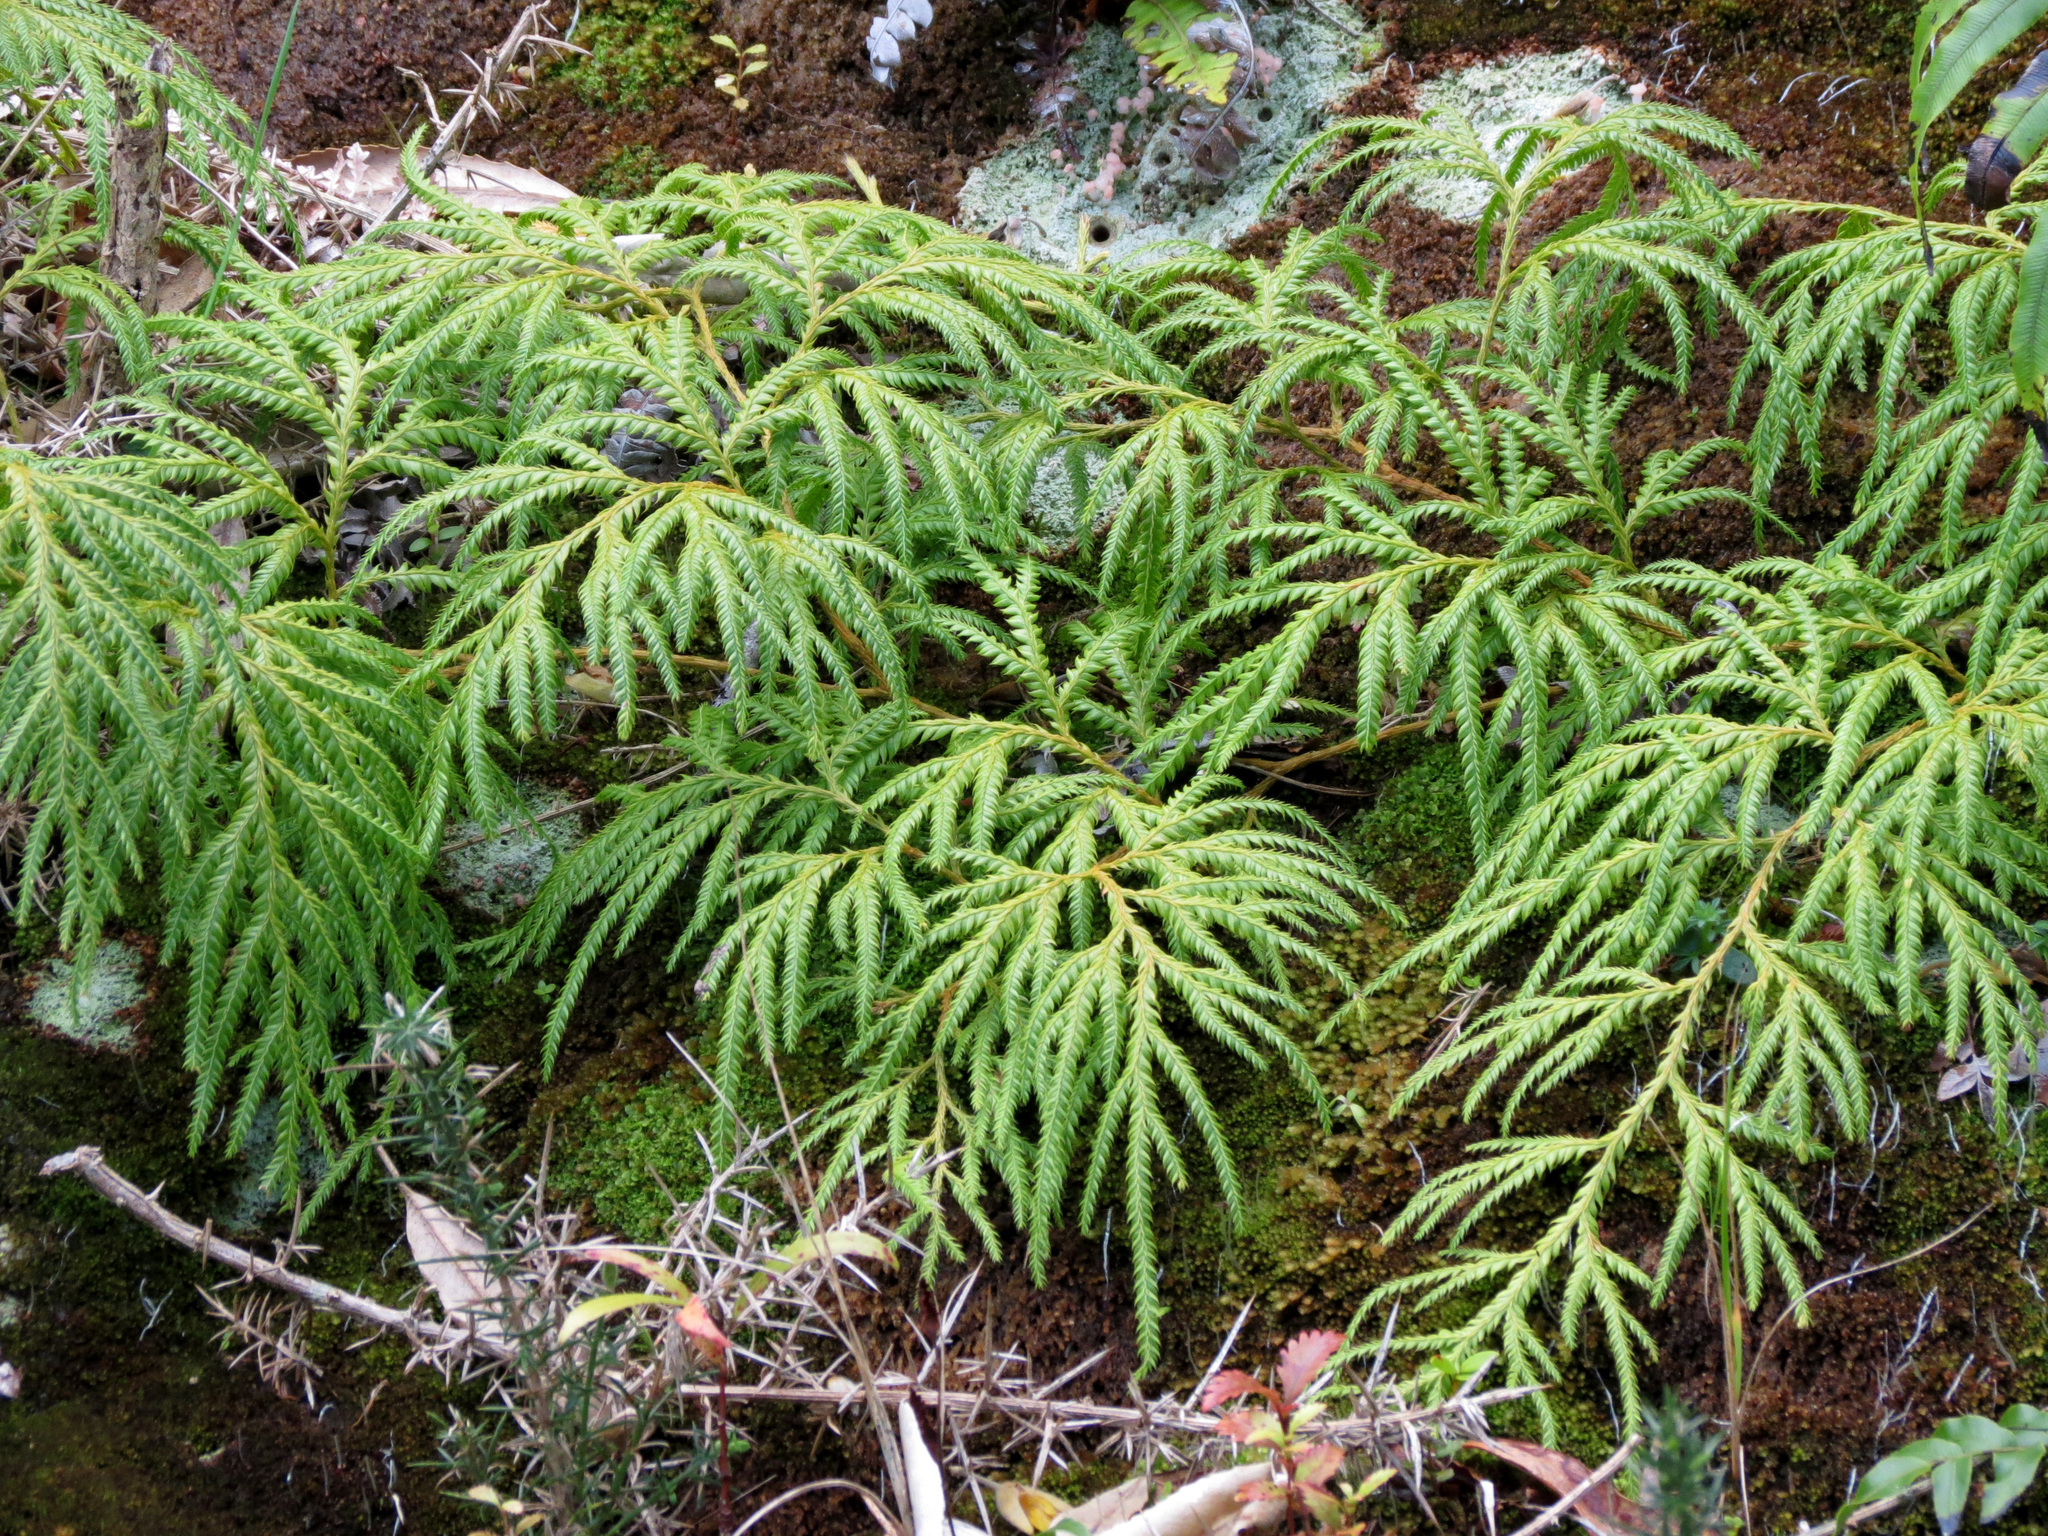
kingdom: Plantae
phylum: Tracheophyta
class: Lycopodiopsida
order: Lycopodiales
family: Lycopodiaceae
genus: Lycopodium
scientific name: Lycopodium volubile
